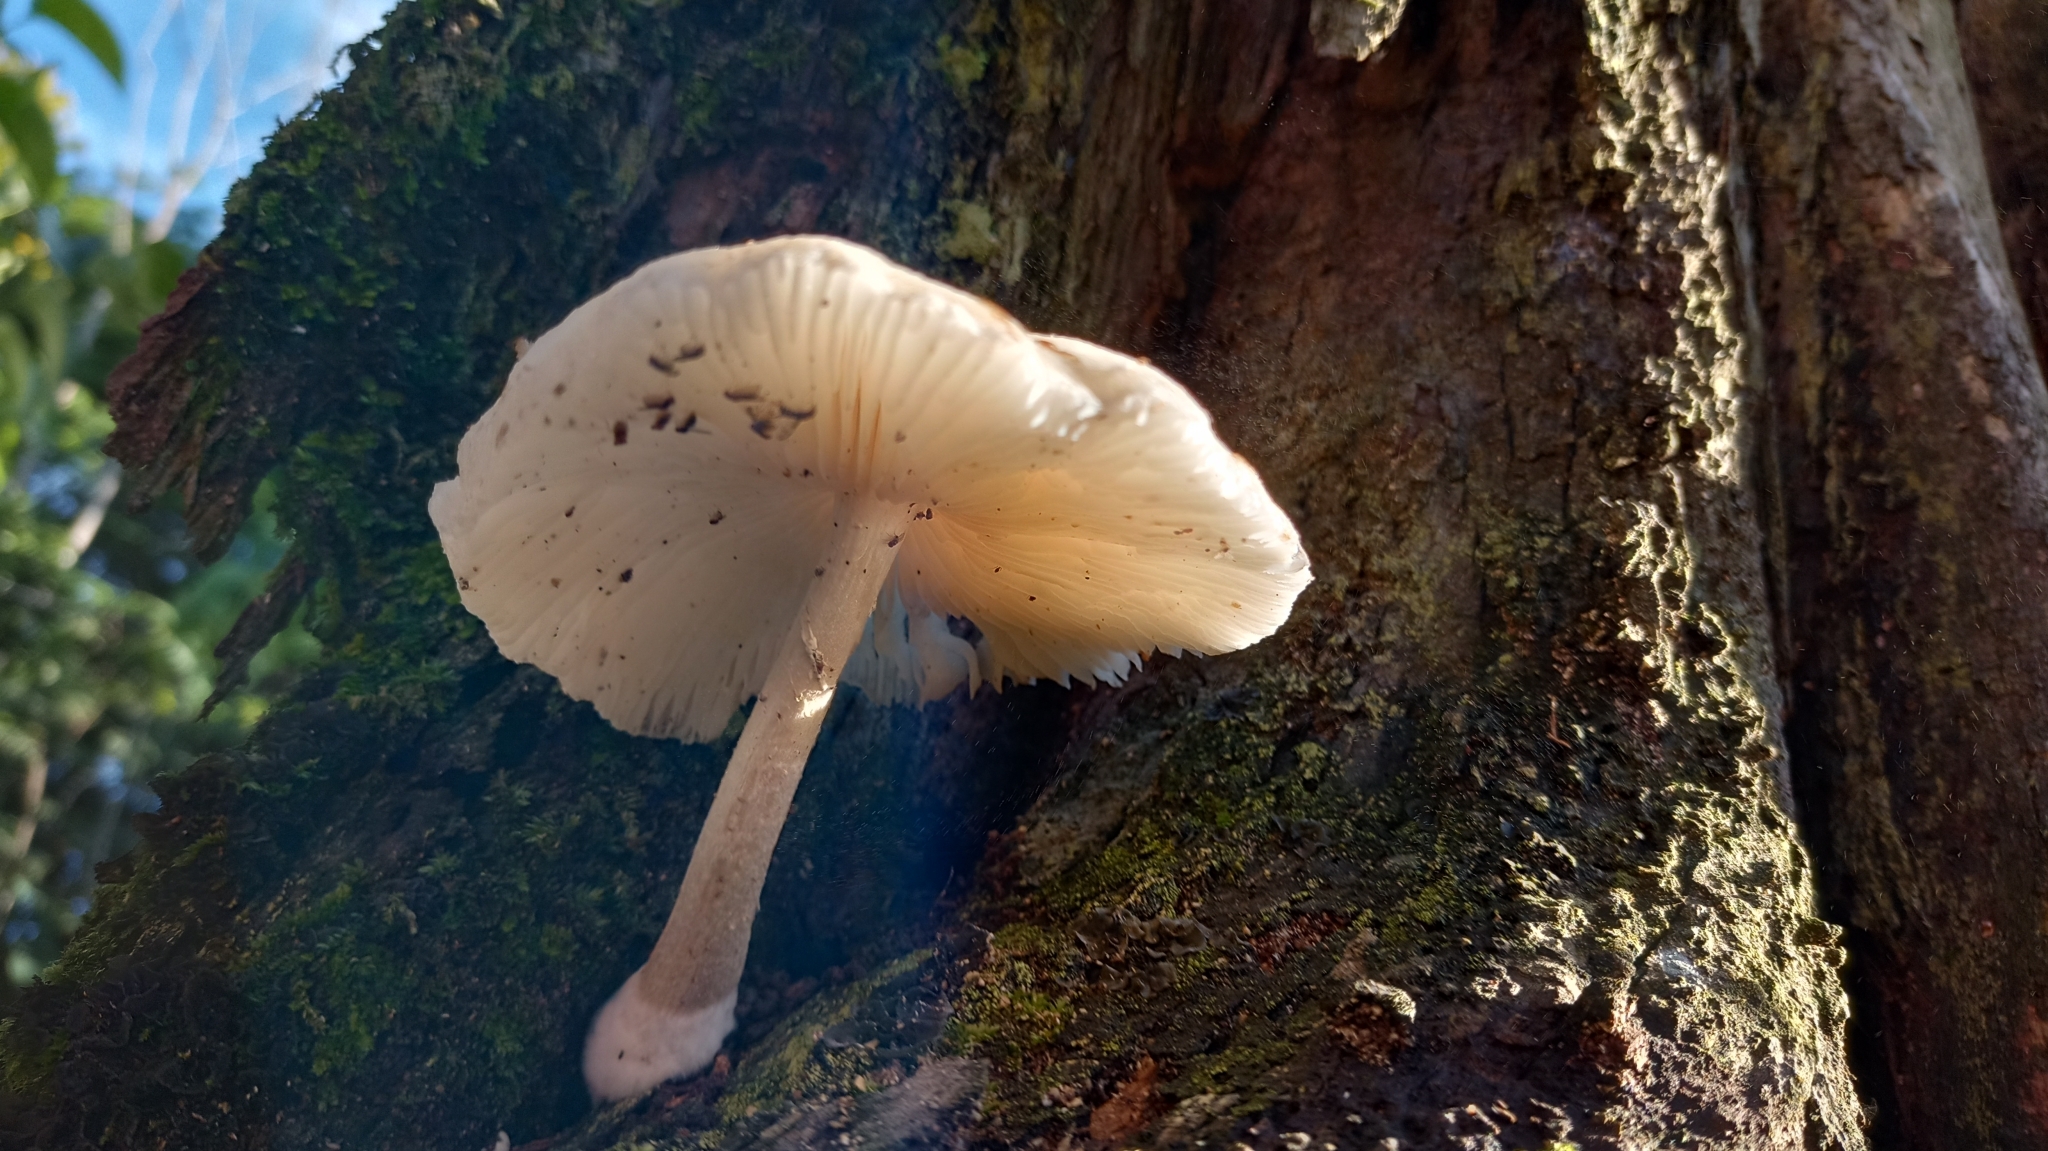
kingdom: Fungi
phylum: Basidiomycota
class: Agaricomycetes
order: Agaricales
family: Physalacriaceae
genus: Oudemansiella
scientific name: Oudemansiella canarii
